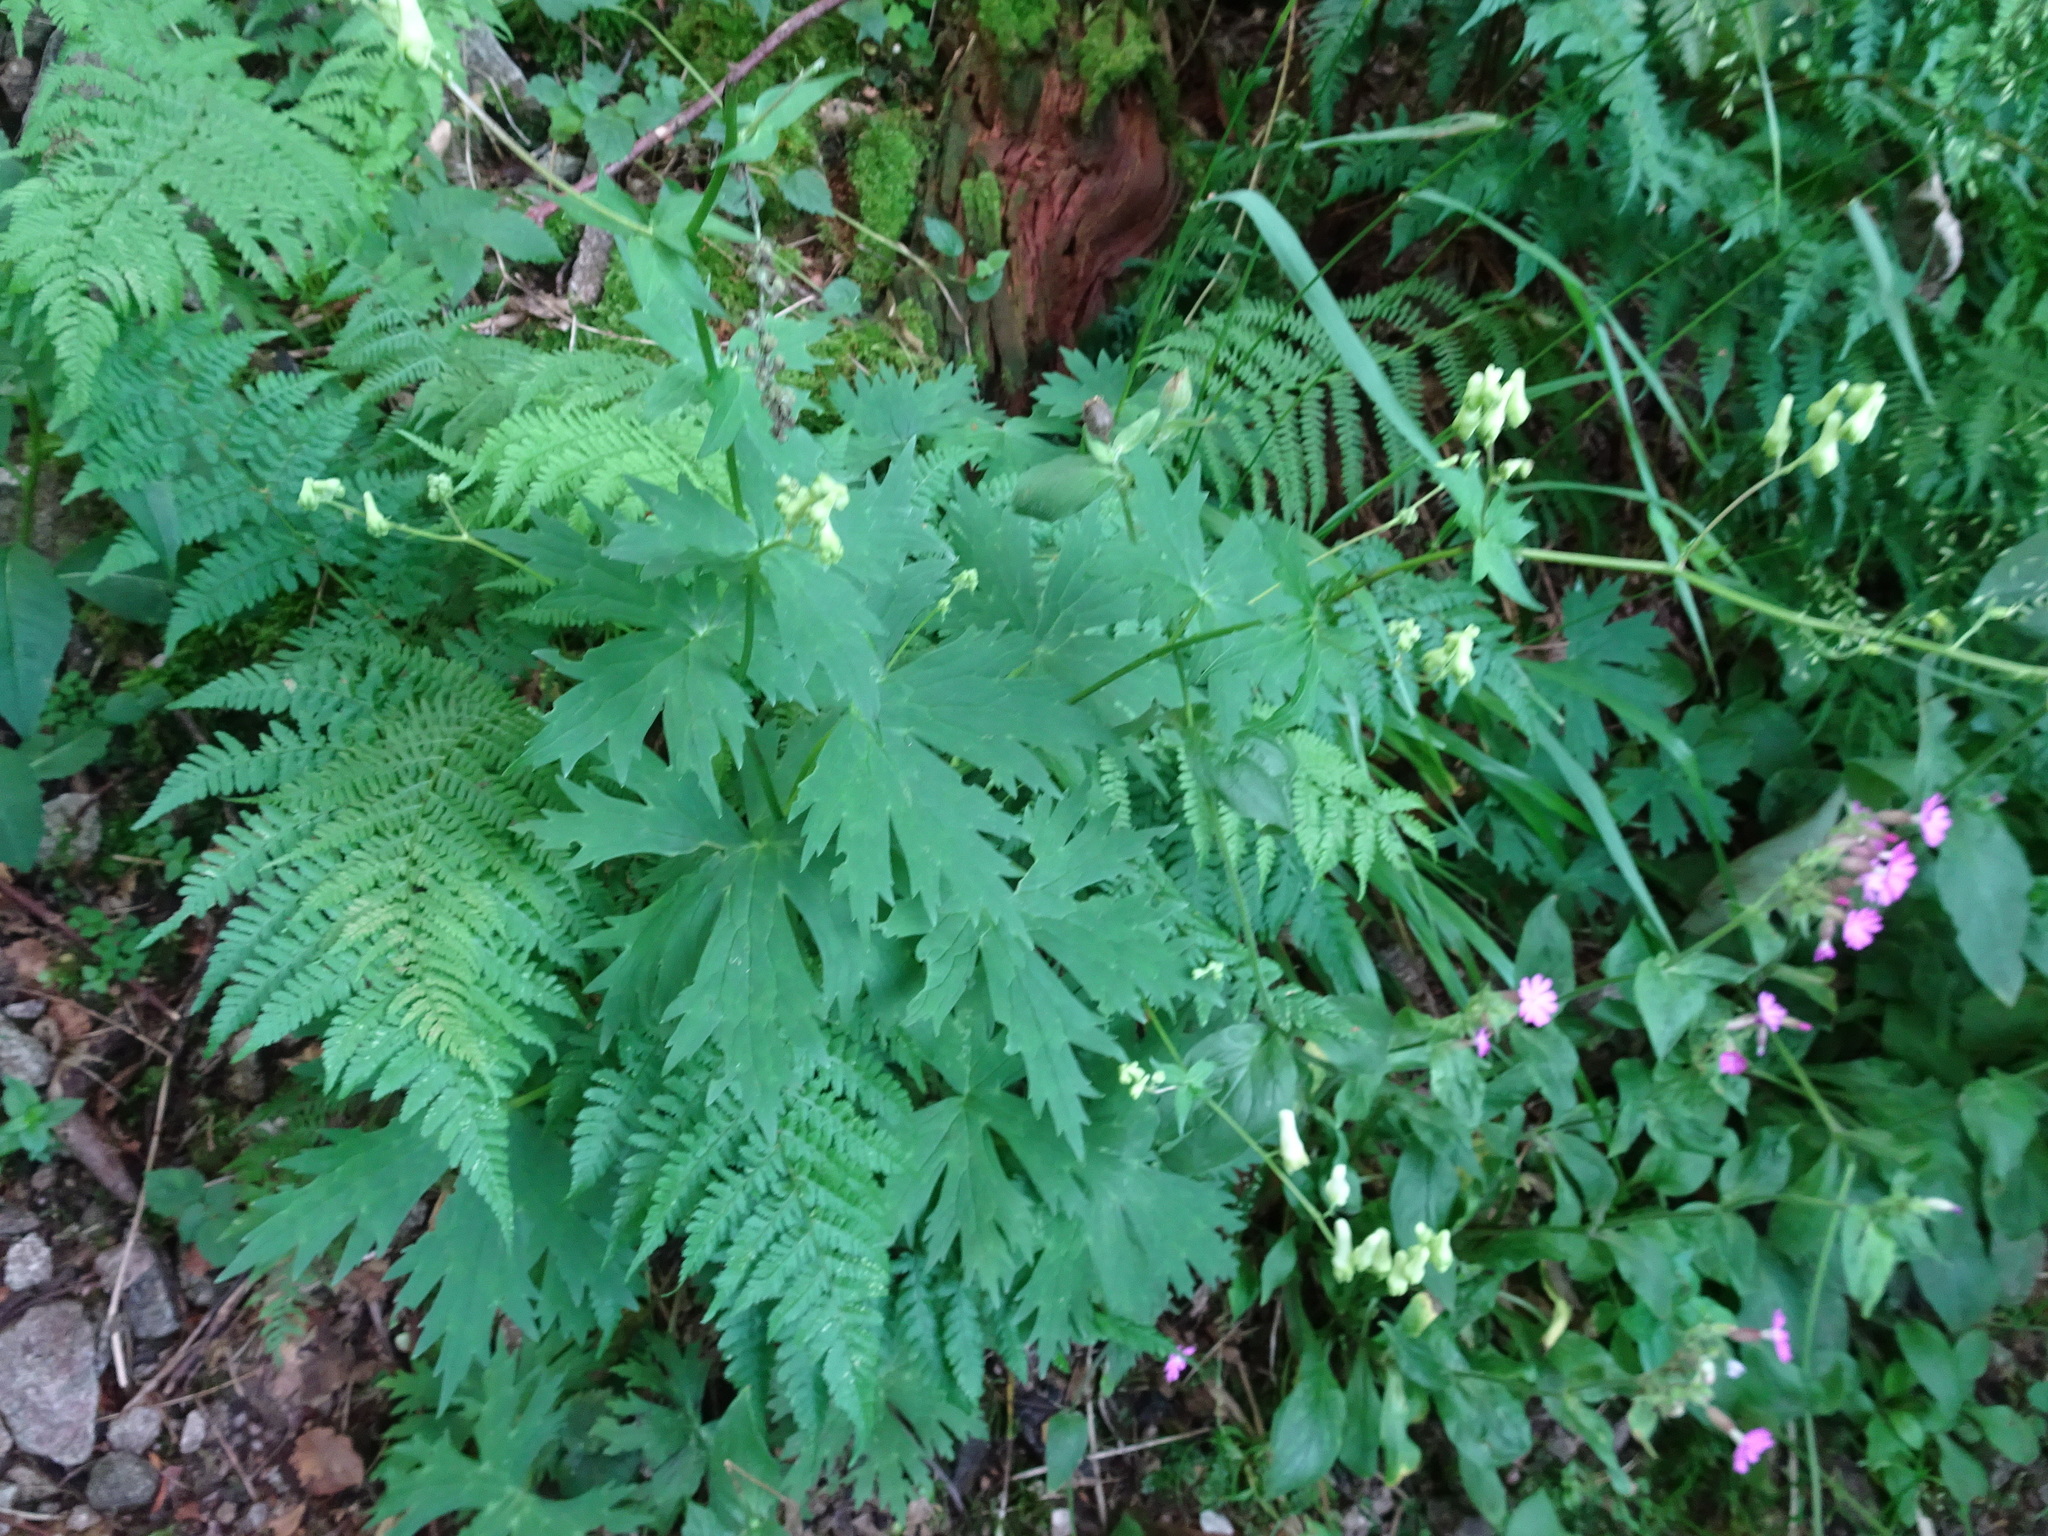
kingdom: Plantae
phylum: Tracheophyta
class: Magnoliopsida
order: Ranunculales
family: Ranunculaceae
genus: Aconitum
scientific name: Aconitum lycoctonum
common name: Wolf's-bane
